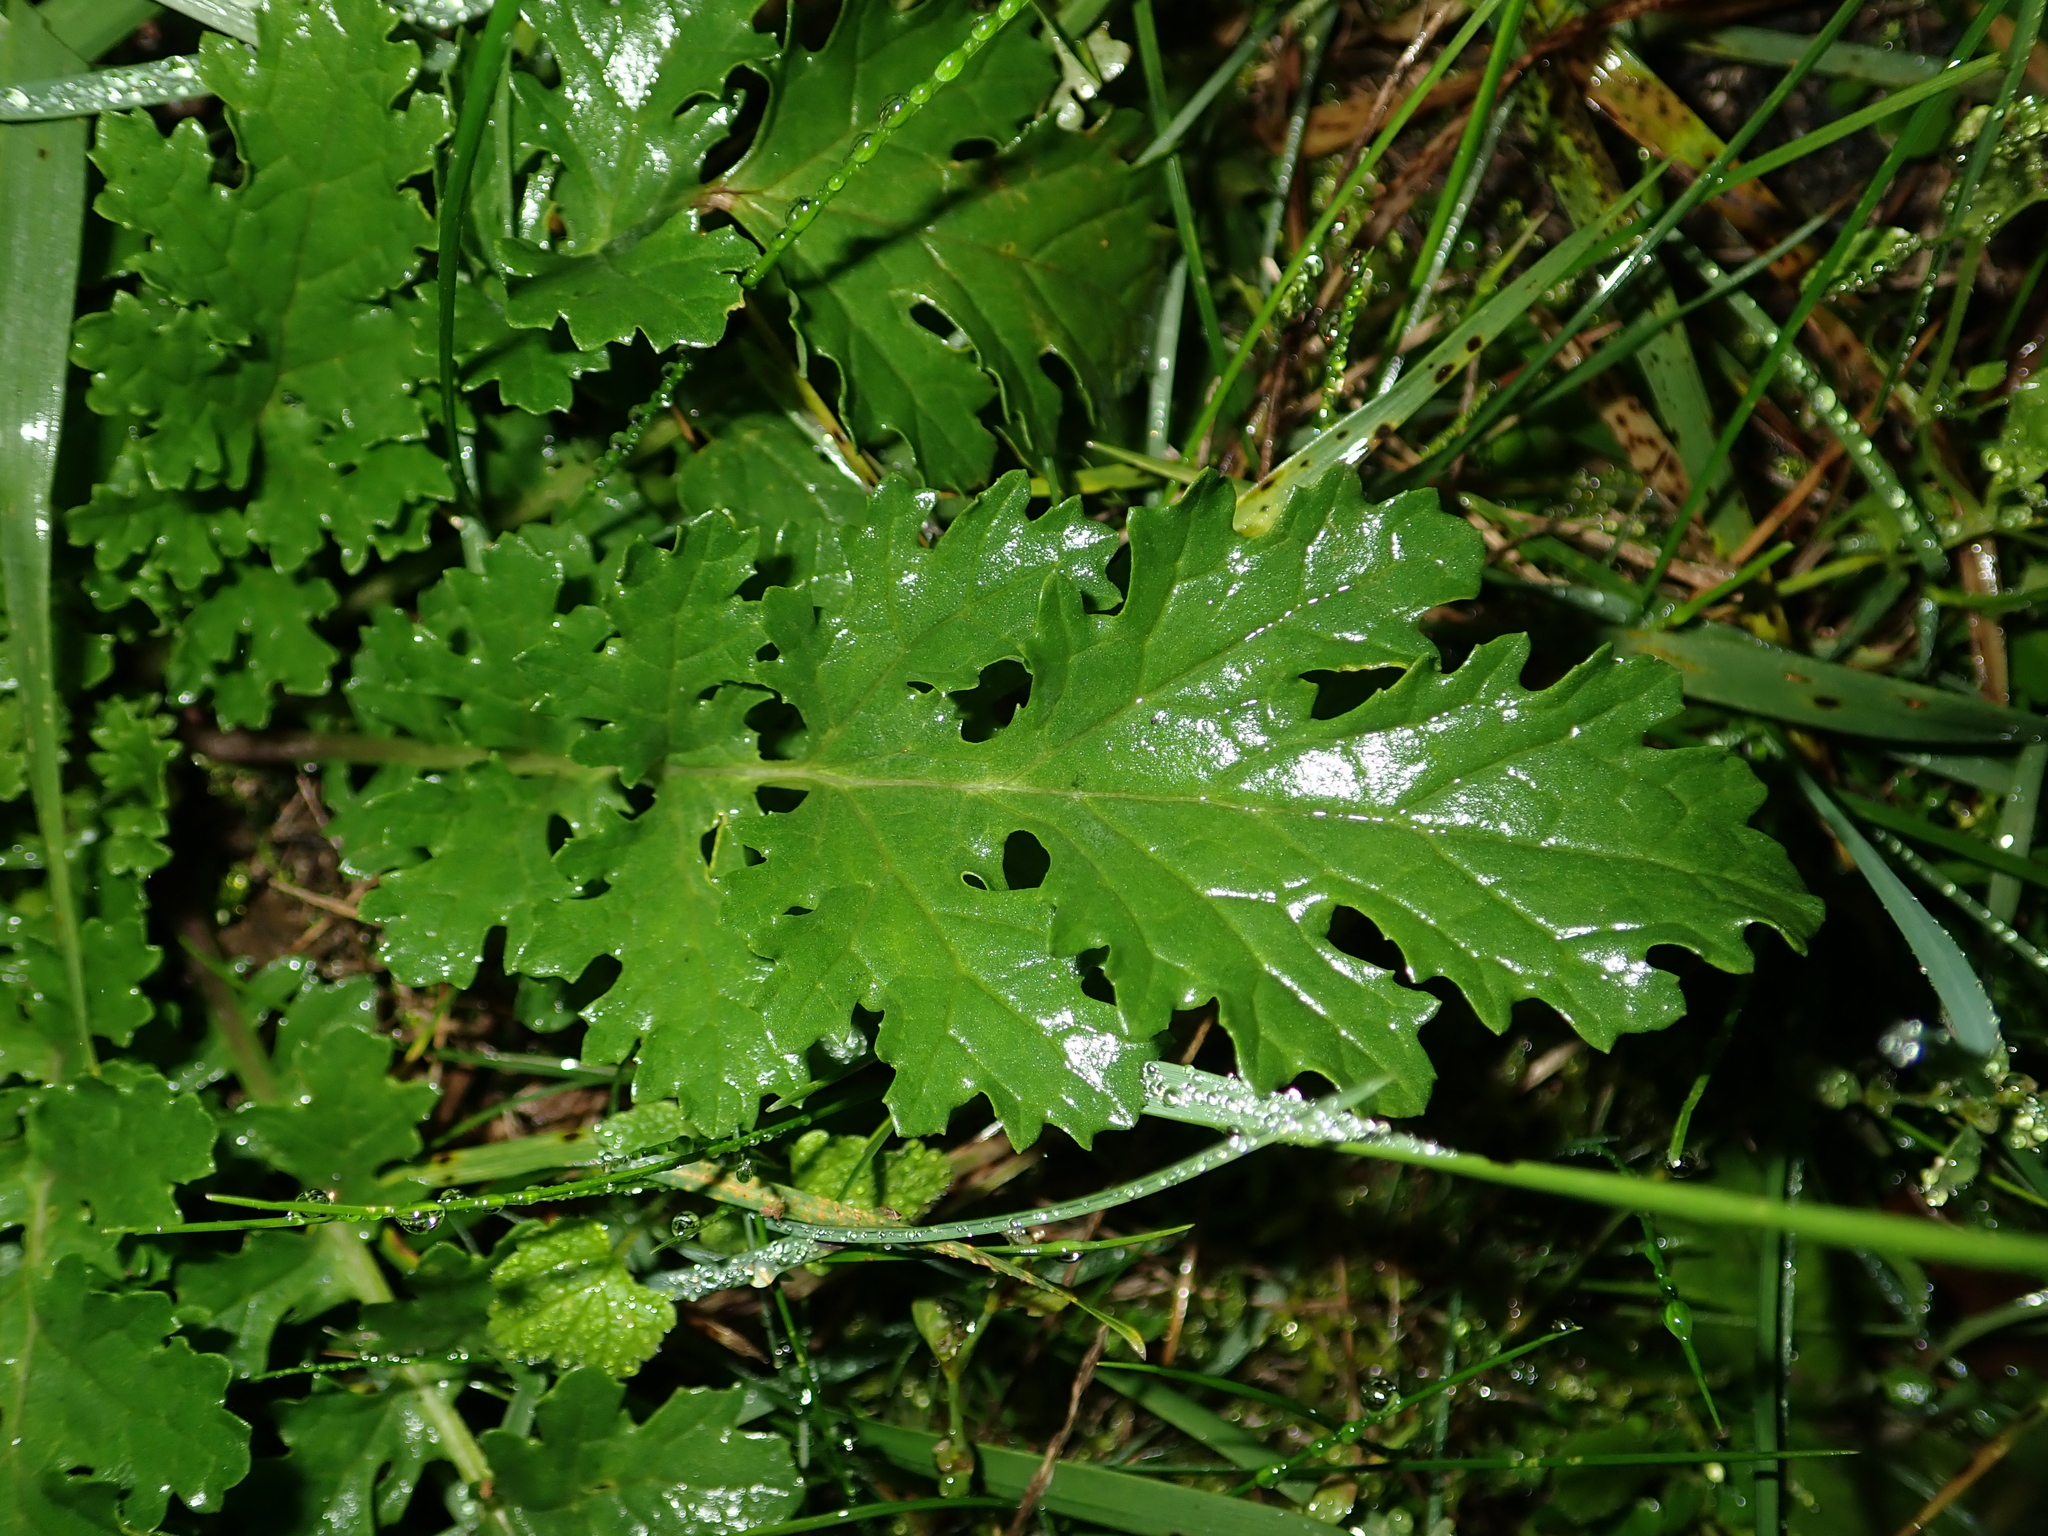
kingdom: Plantae
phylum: Tracheophyta
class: Magnoliopsida
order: Asterales
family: Asteraceae
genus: Jacobaea
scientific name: Jacobaea vulgaris
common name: Stinking willie
